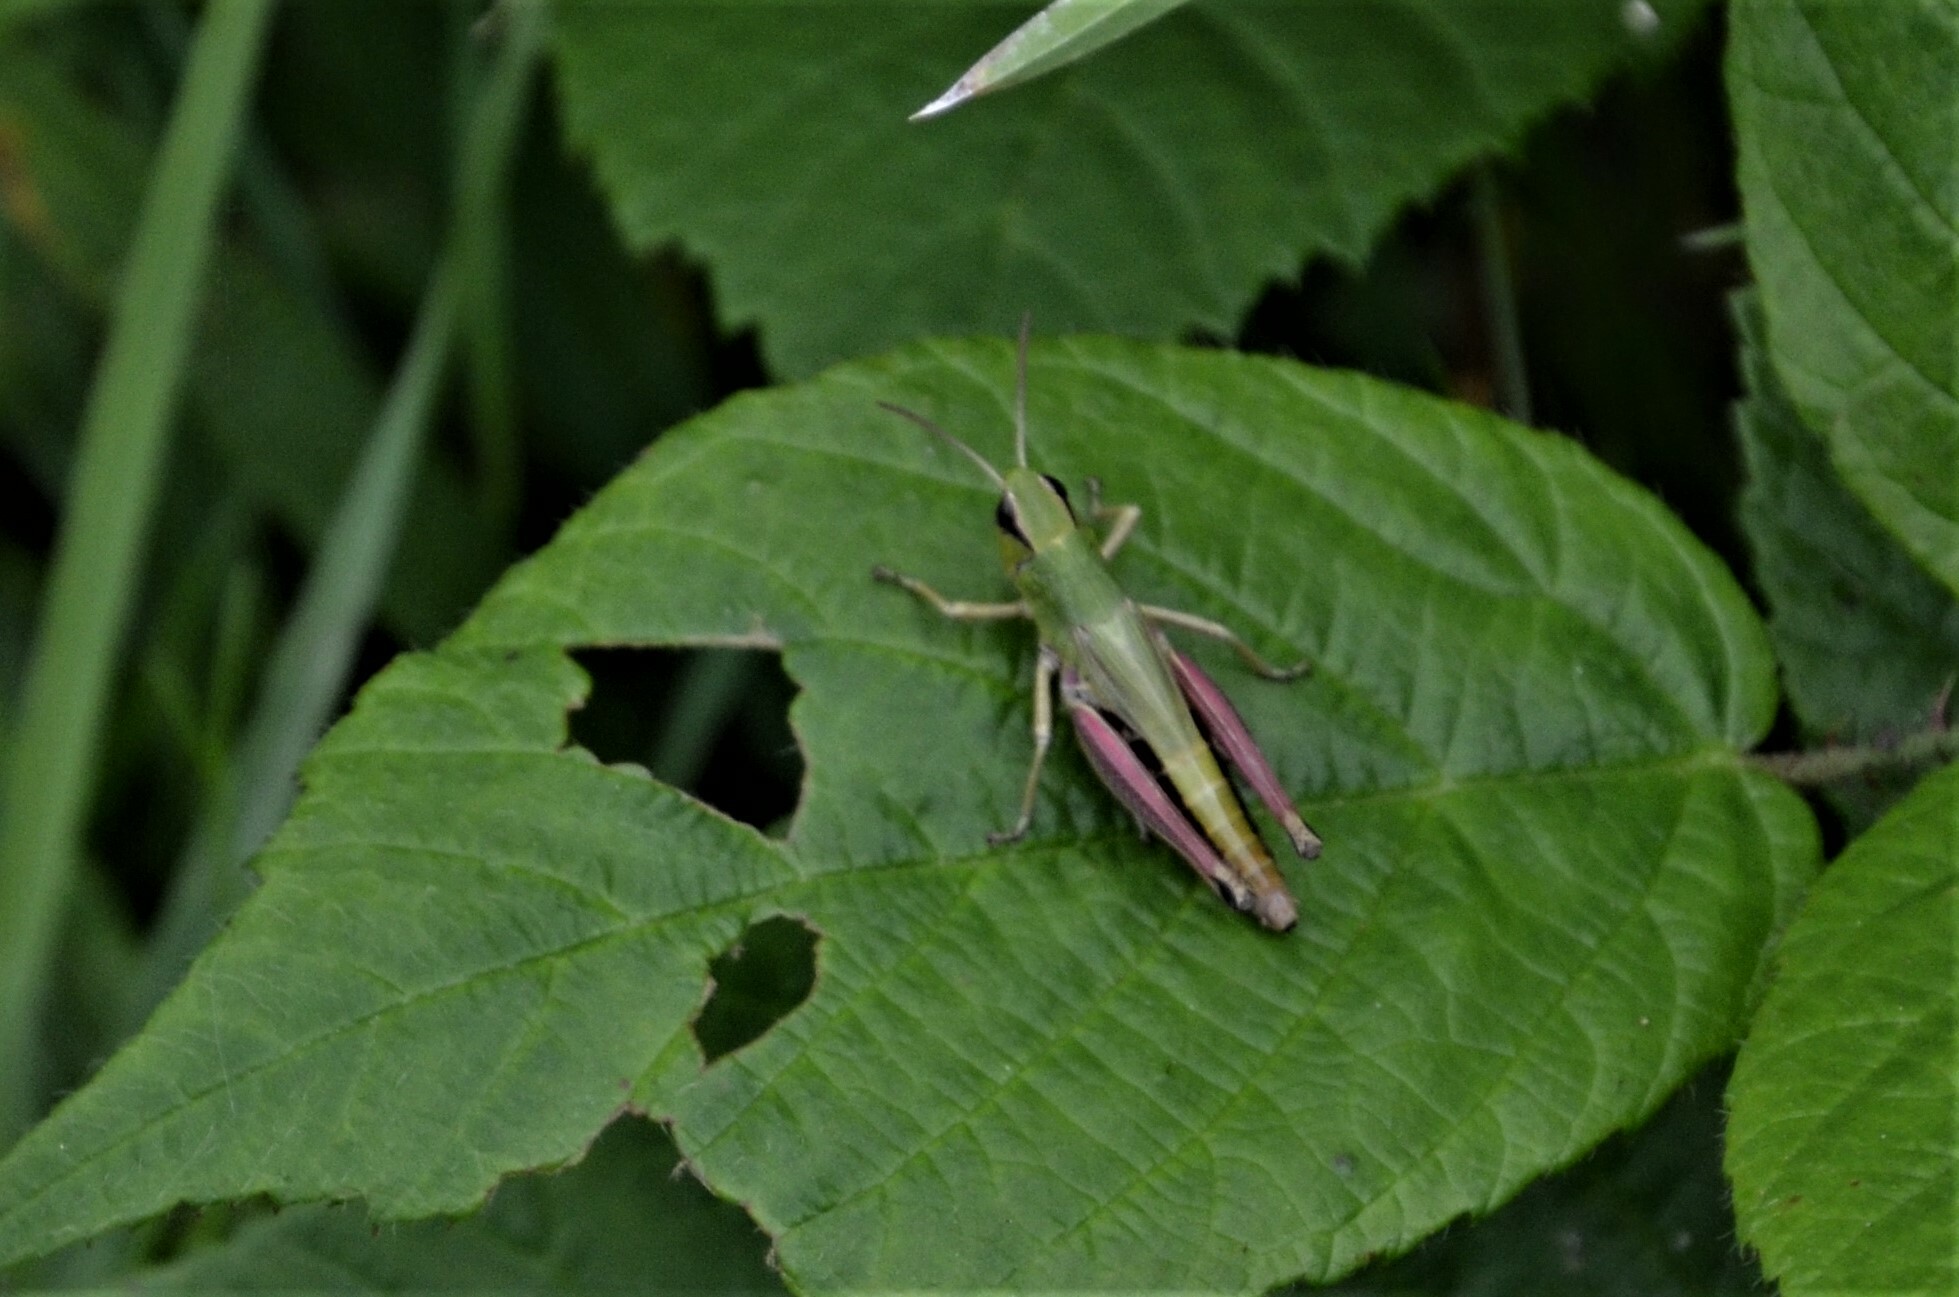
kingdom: Animalia
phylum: Arthropoda
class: Insecta
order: Orthoptera
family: Acrididae
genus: Pseudochorthippus
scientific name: Pseudochorthippus parallelus
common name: Meadow grasshopper
